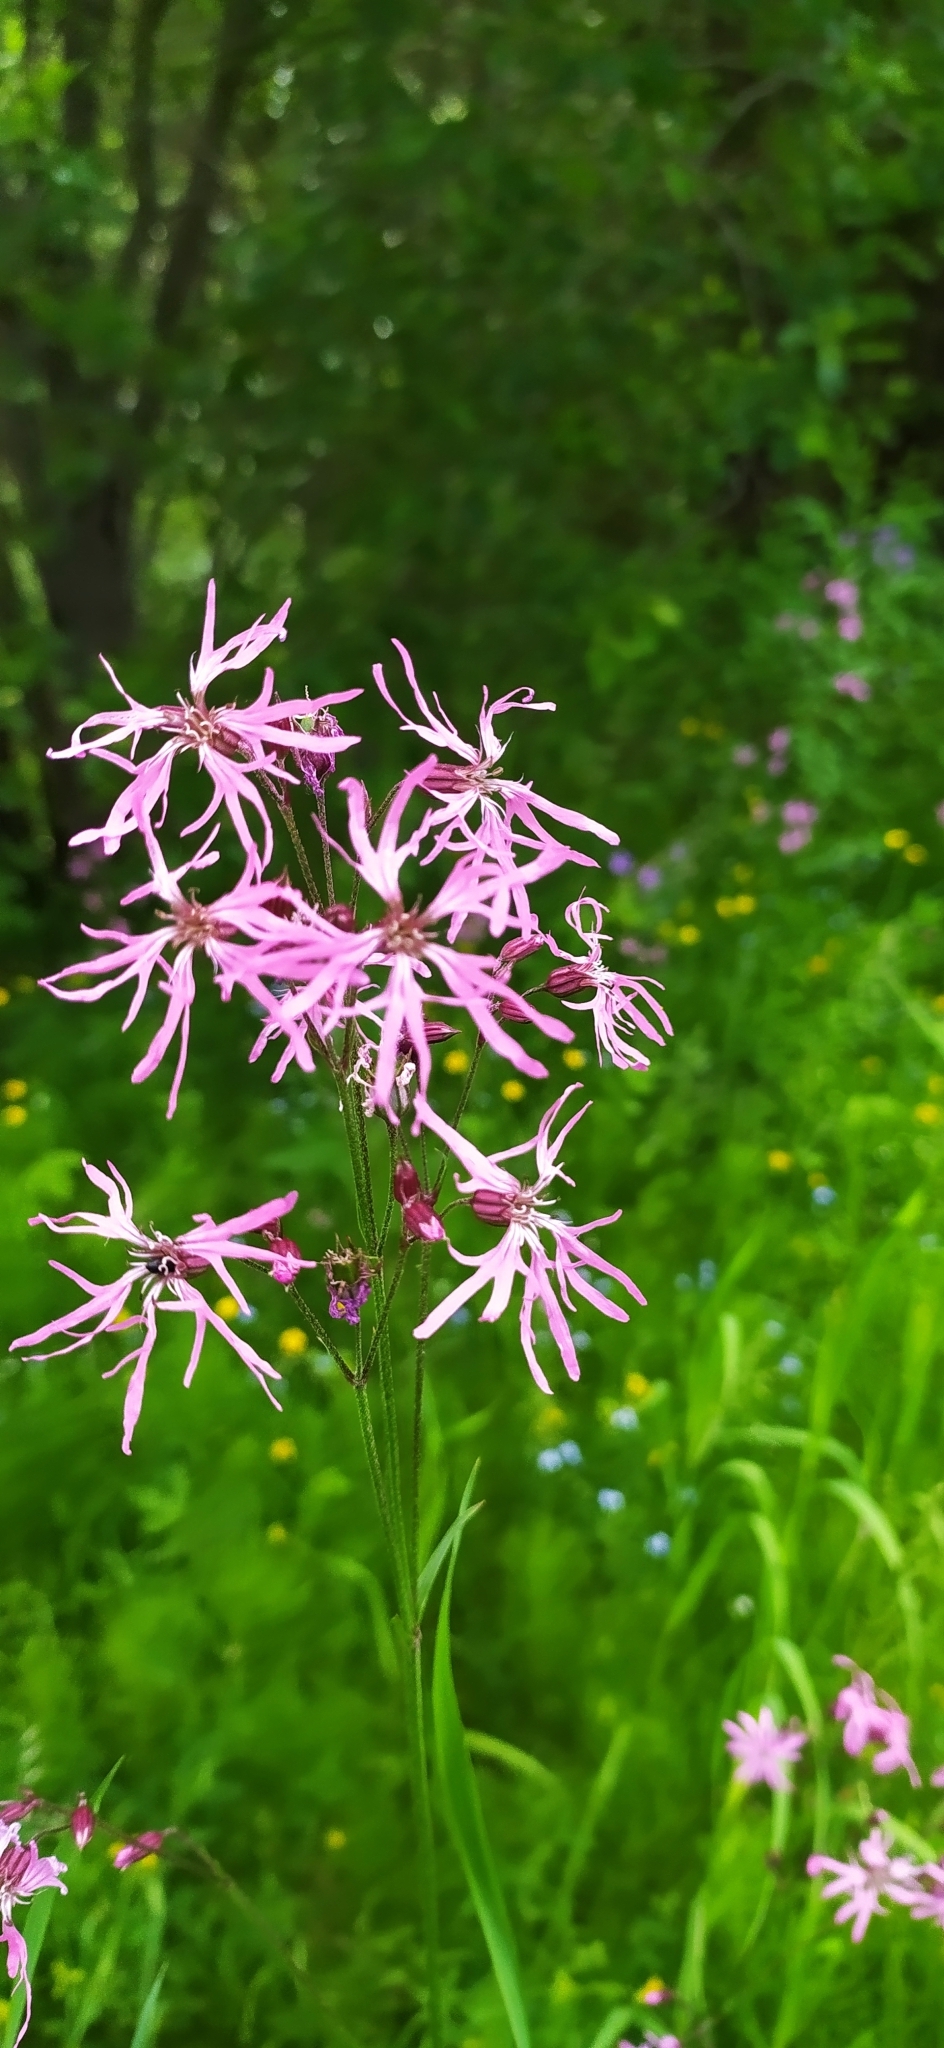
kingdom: Plantae
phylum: Tracheophyta
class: Magnoliopsida
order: Caryophyllales
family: Caryophyllaceae
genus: Silene
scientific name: Silene flos-cuculi
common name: Ragged-robin
